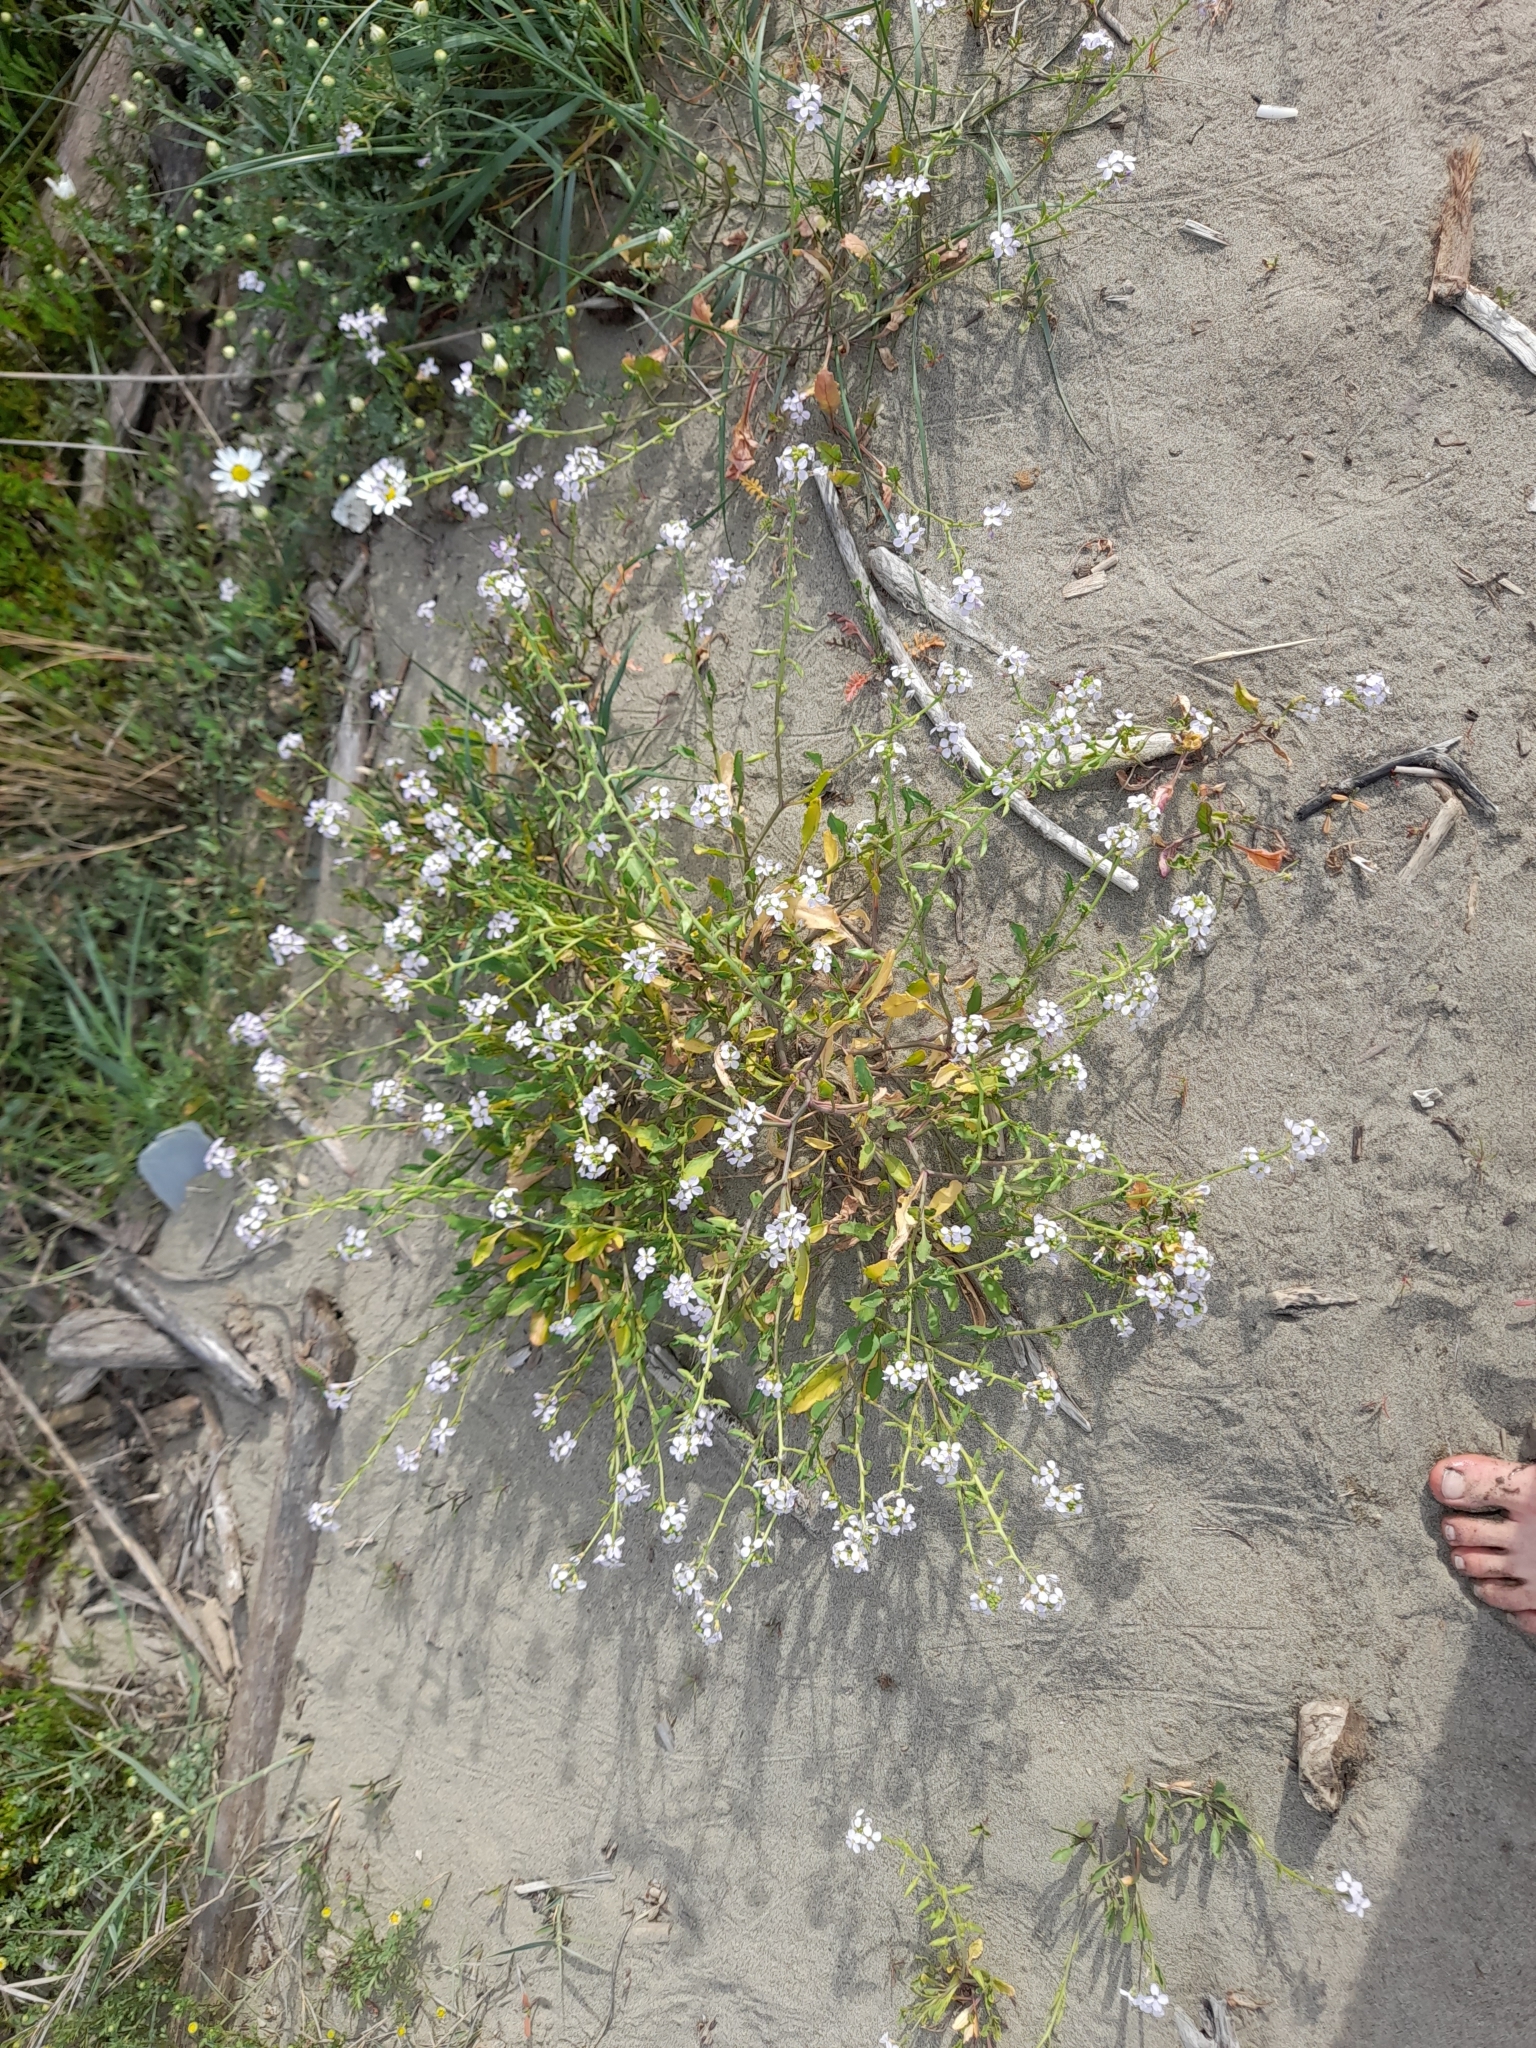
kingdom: Plantae
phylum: Tracheophyta
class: Magnoliopsida
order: Brassicales
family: Brassicaceae
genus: Cakile
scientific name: Cakile maritima
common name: Sea rocket
